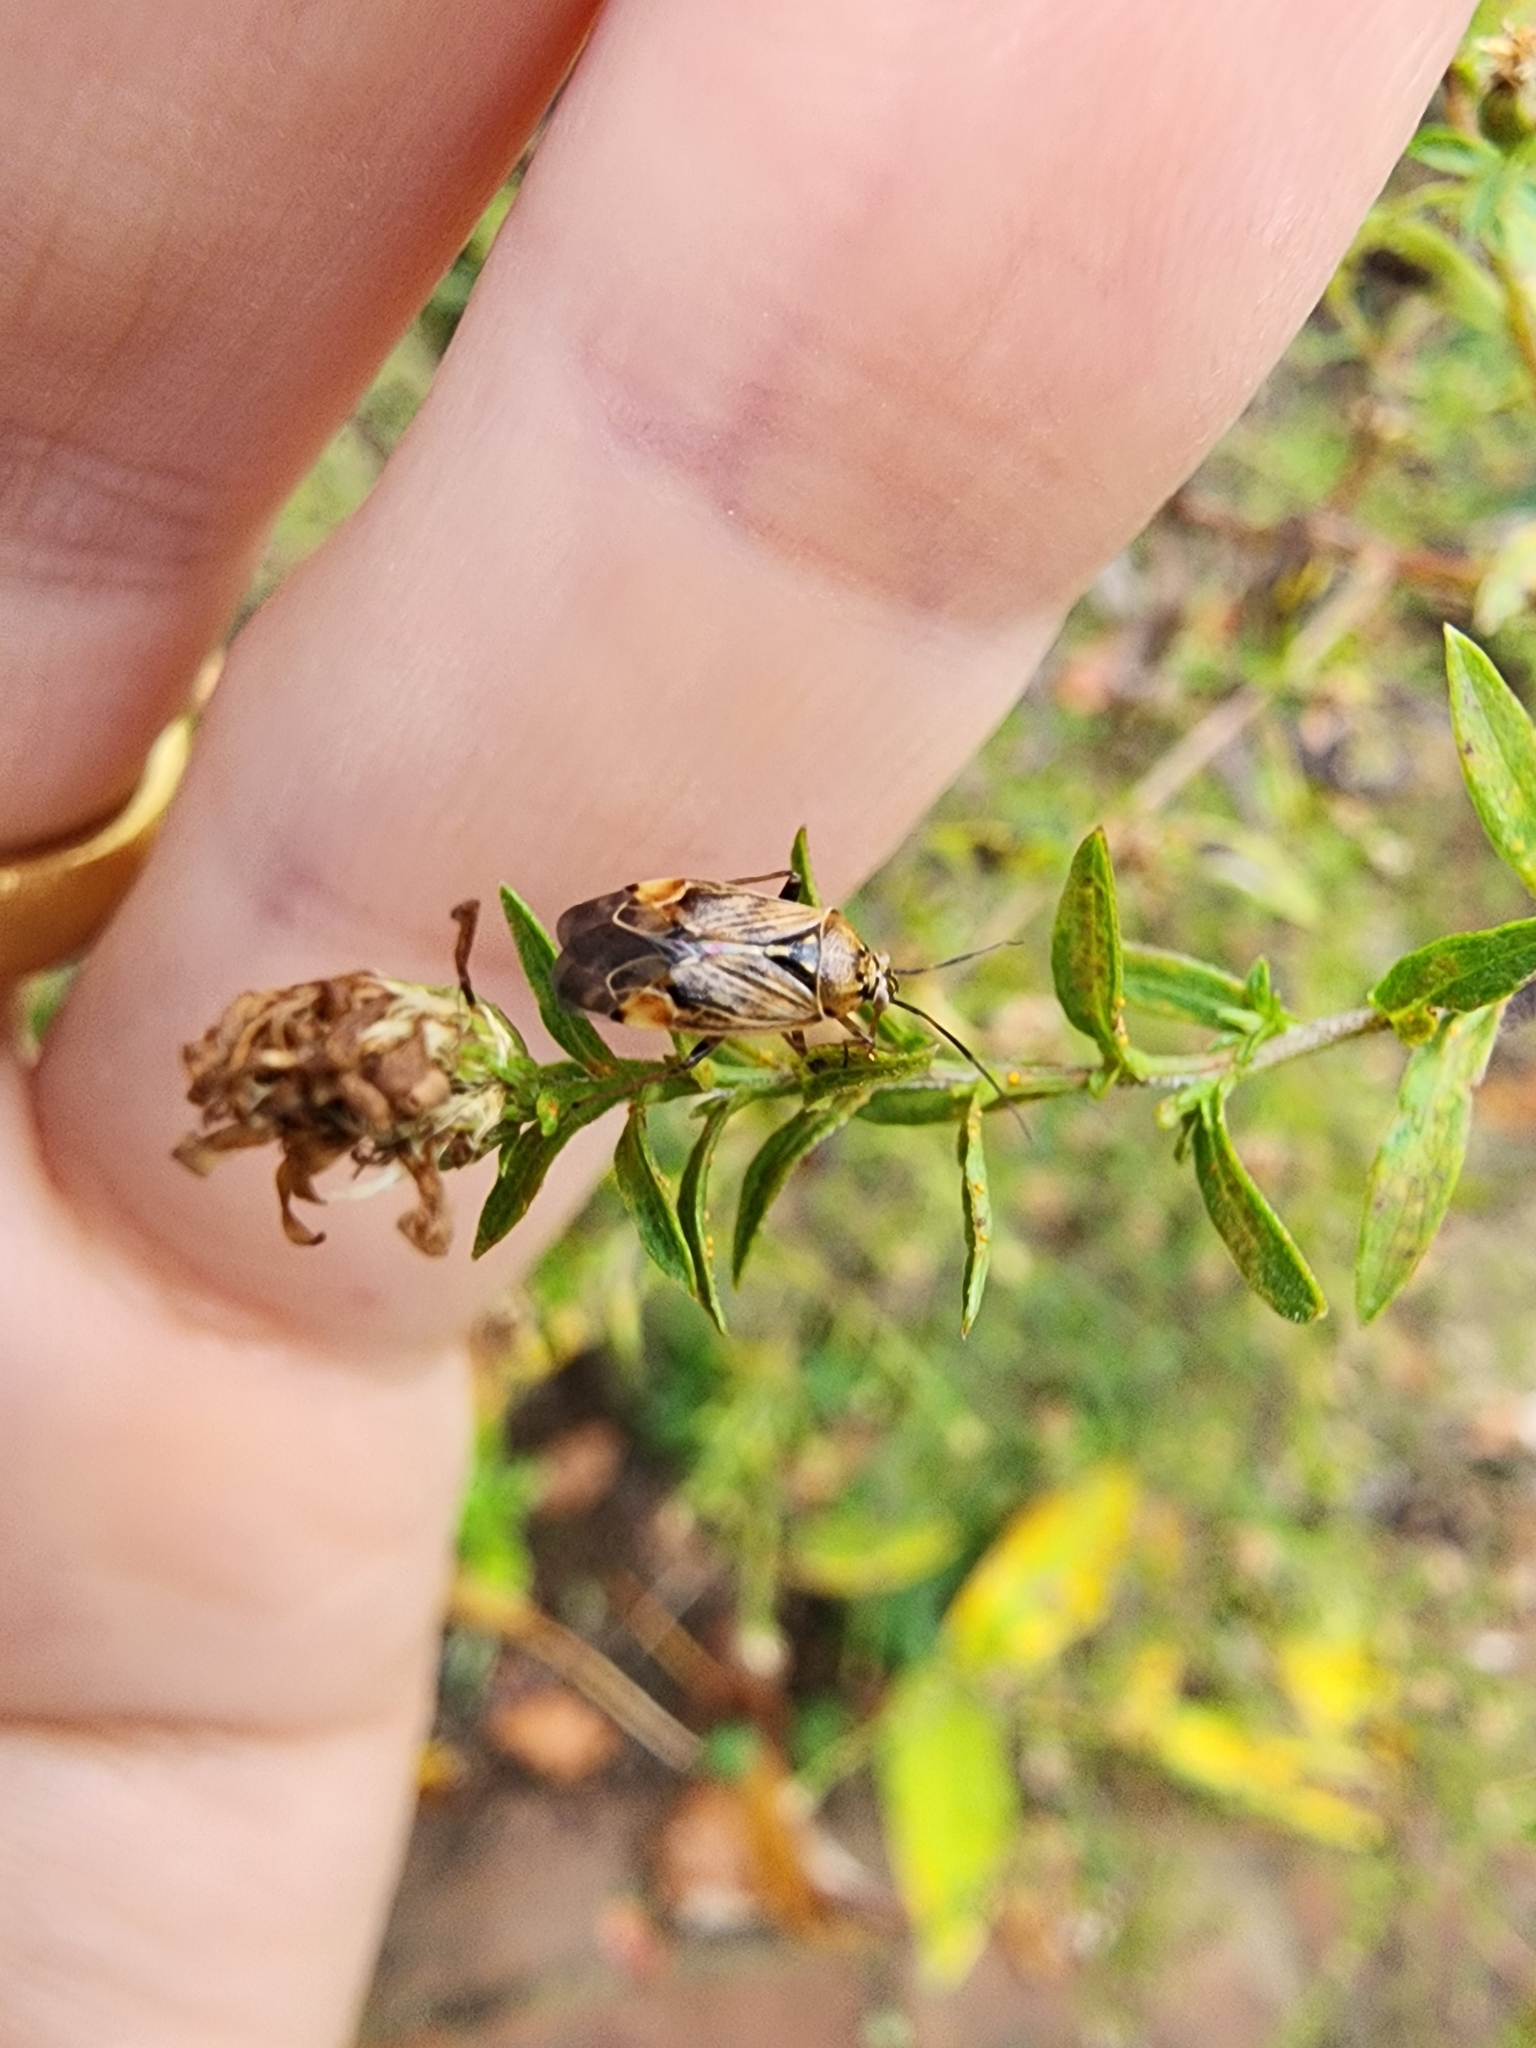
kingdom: Animalia
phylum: Arthropoda
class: Insecta
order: Hemiptera
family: Miridae
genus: Lygus
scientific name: Lygus lineolaris
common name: North american tarnished plant bug
